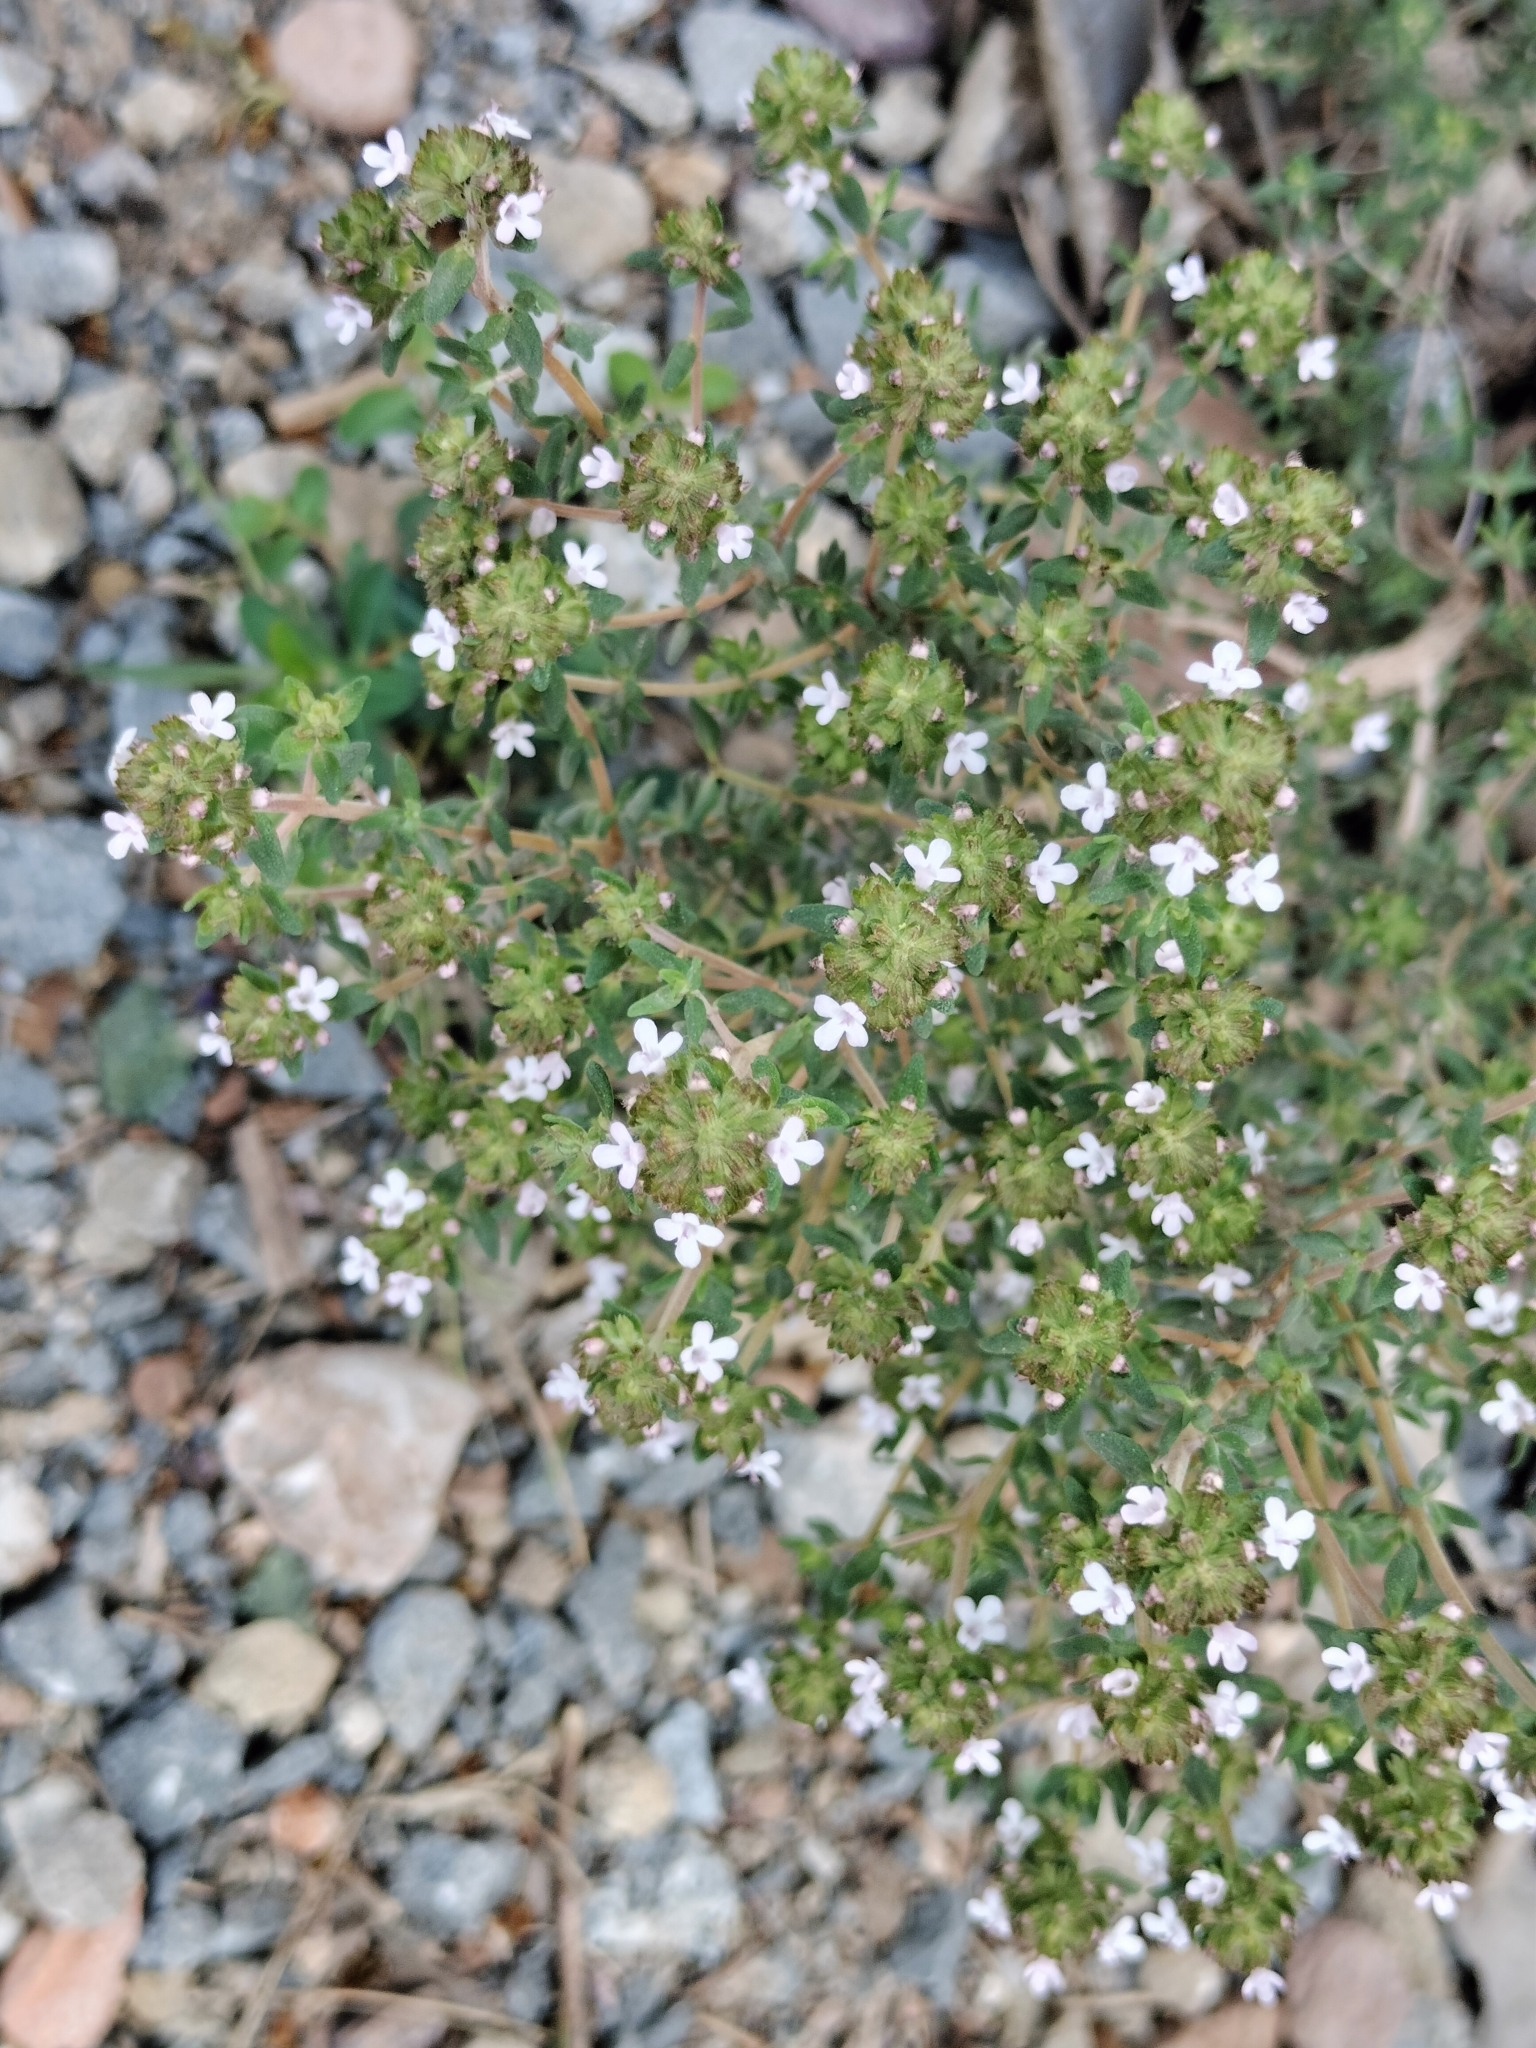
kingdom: Plantae
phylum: Tracheophyta
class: Magnoliopsida
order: Lamiales
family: Lamiaceae
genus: Thymus
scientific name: Thymus vulgaris
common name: Garden thyme
